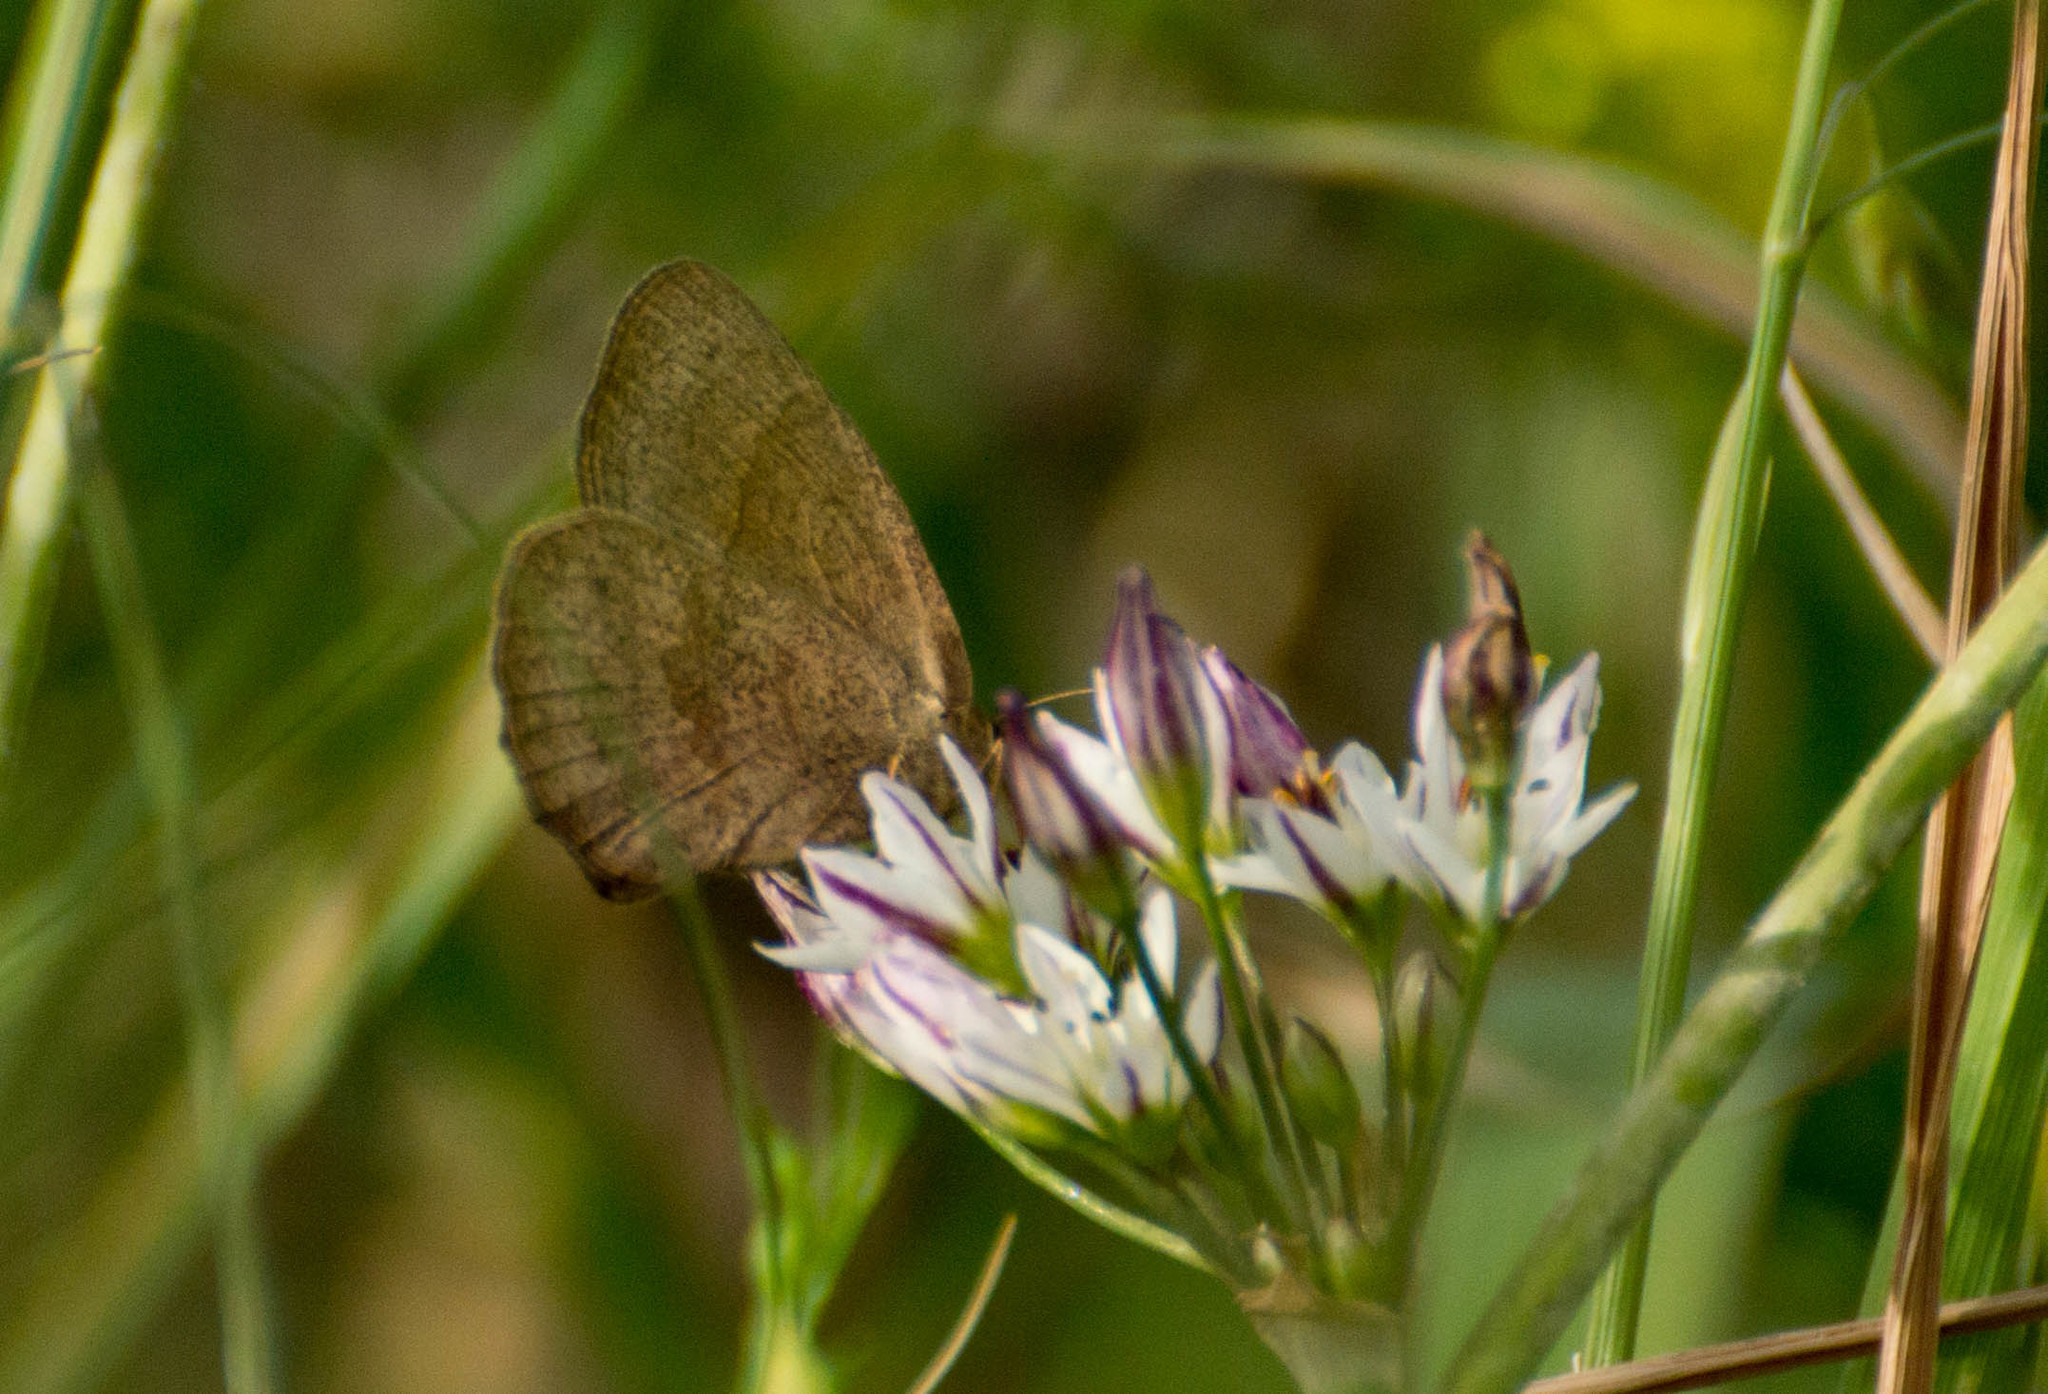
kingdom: Animalia
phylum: Arthropoda
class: Insecta
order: Lepidoptera
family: Nymphalidae
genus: Yphthimoides
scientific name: Yphthimoides celmis
